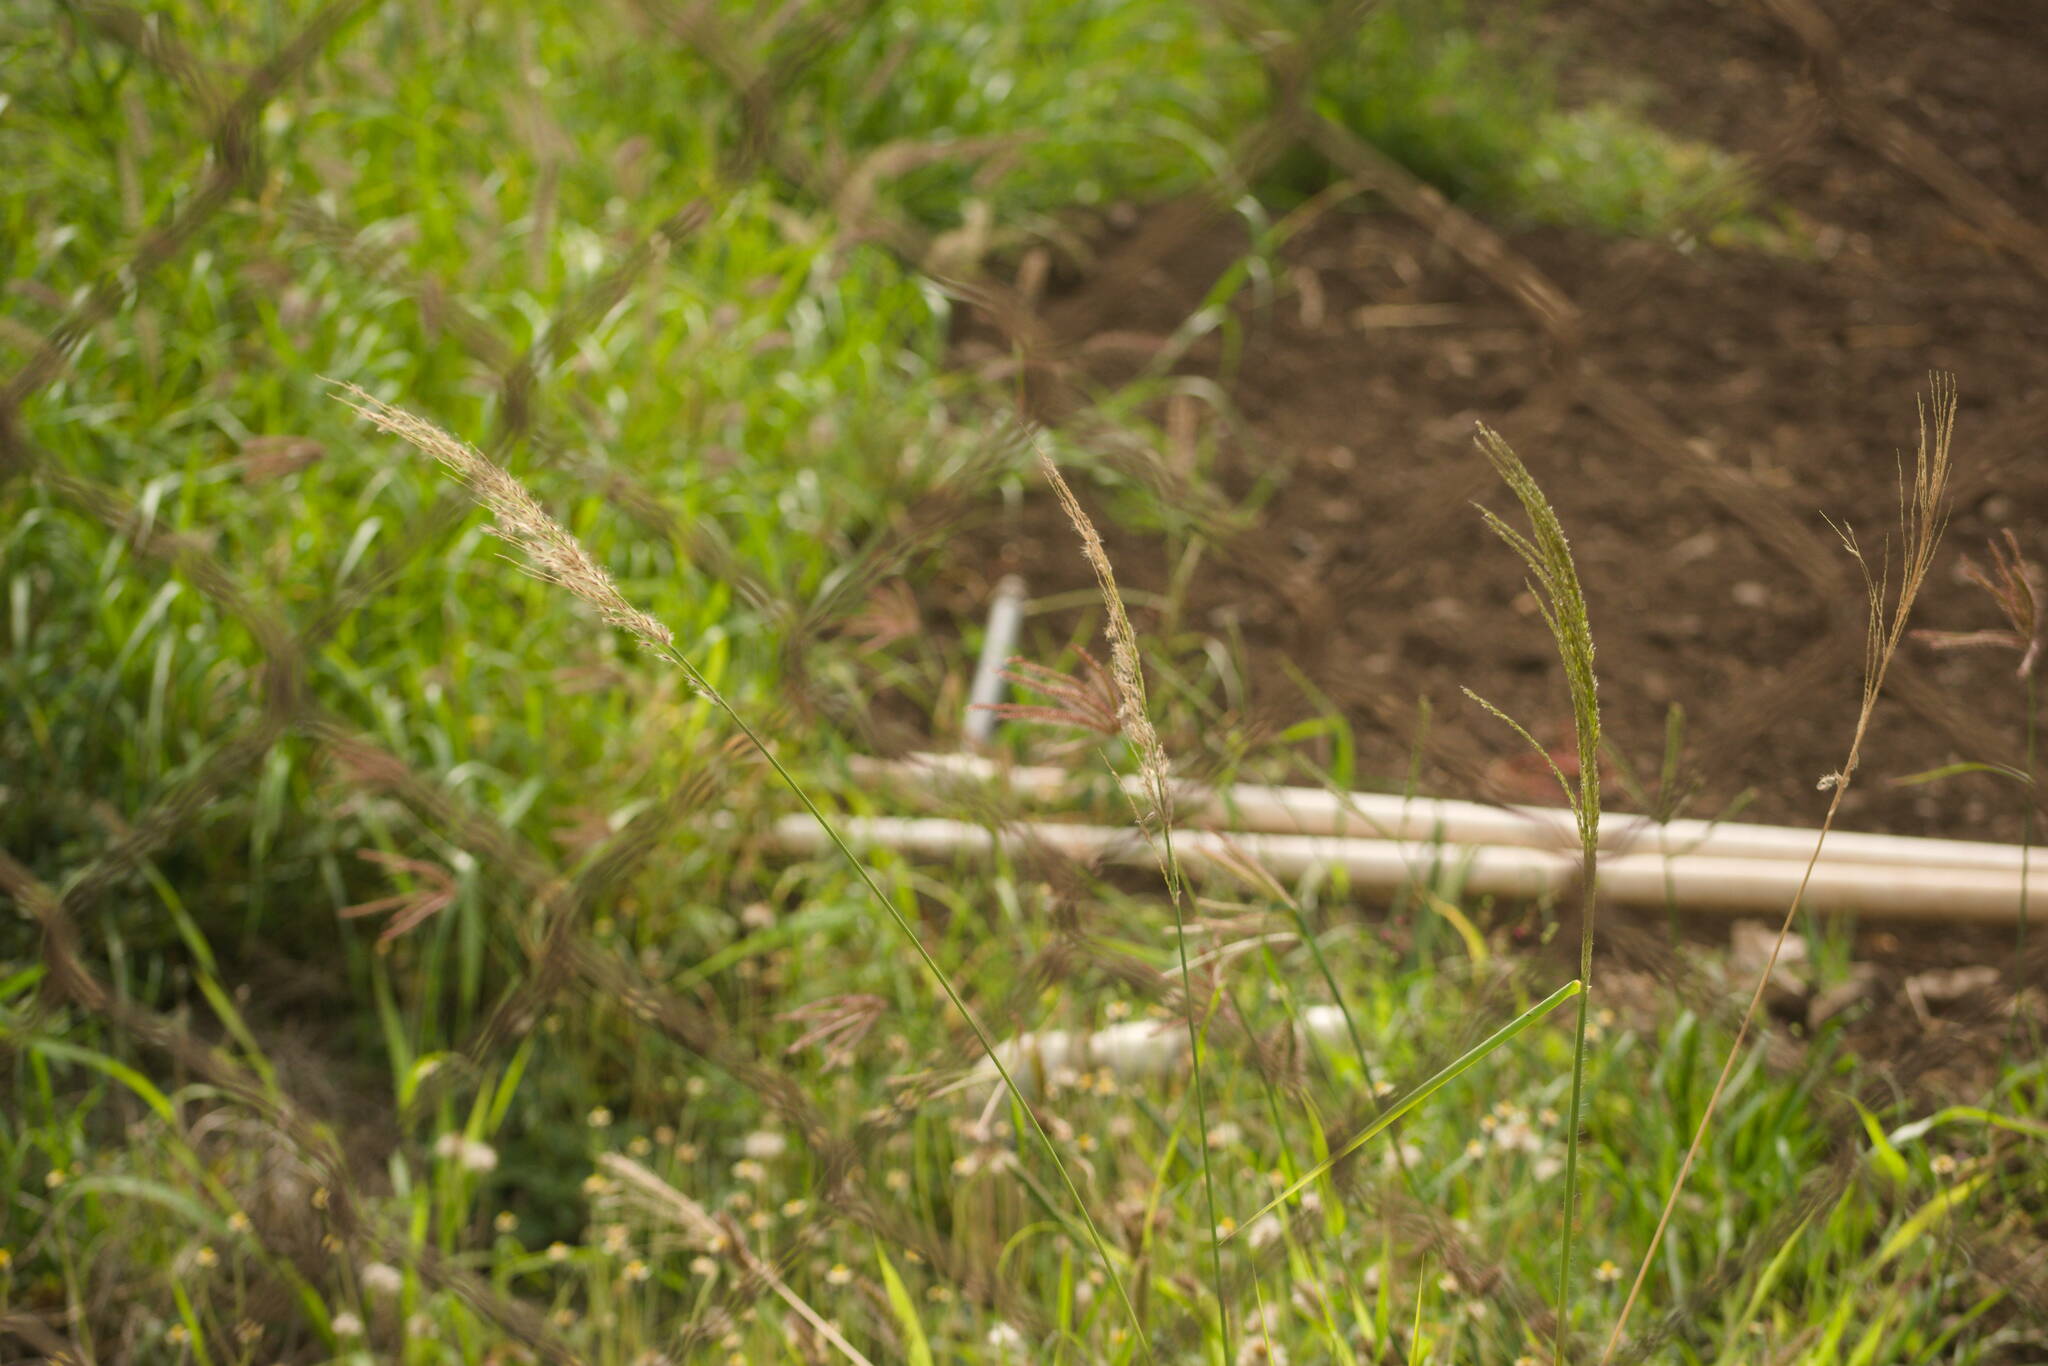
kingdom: Plantae
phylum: Tracheophyta
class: Liliopsida
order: Poales
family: Poaceae
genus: Digitaria
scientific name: Digitaria insularis
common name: Sourgrass
